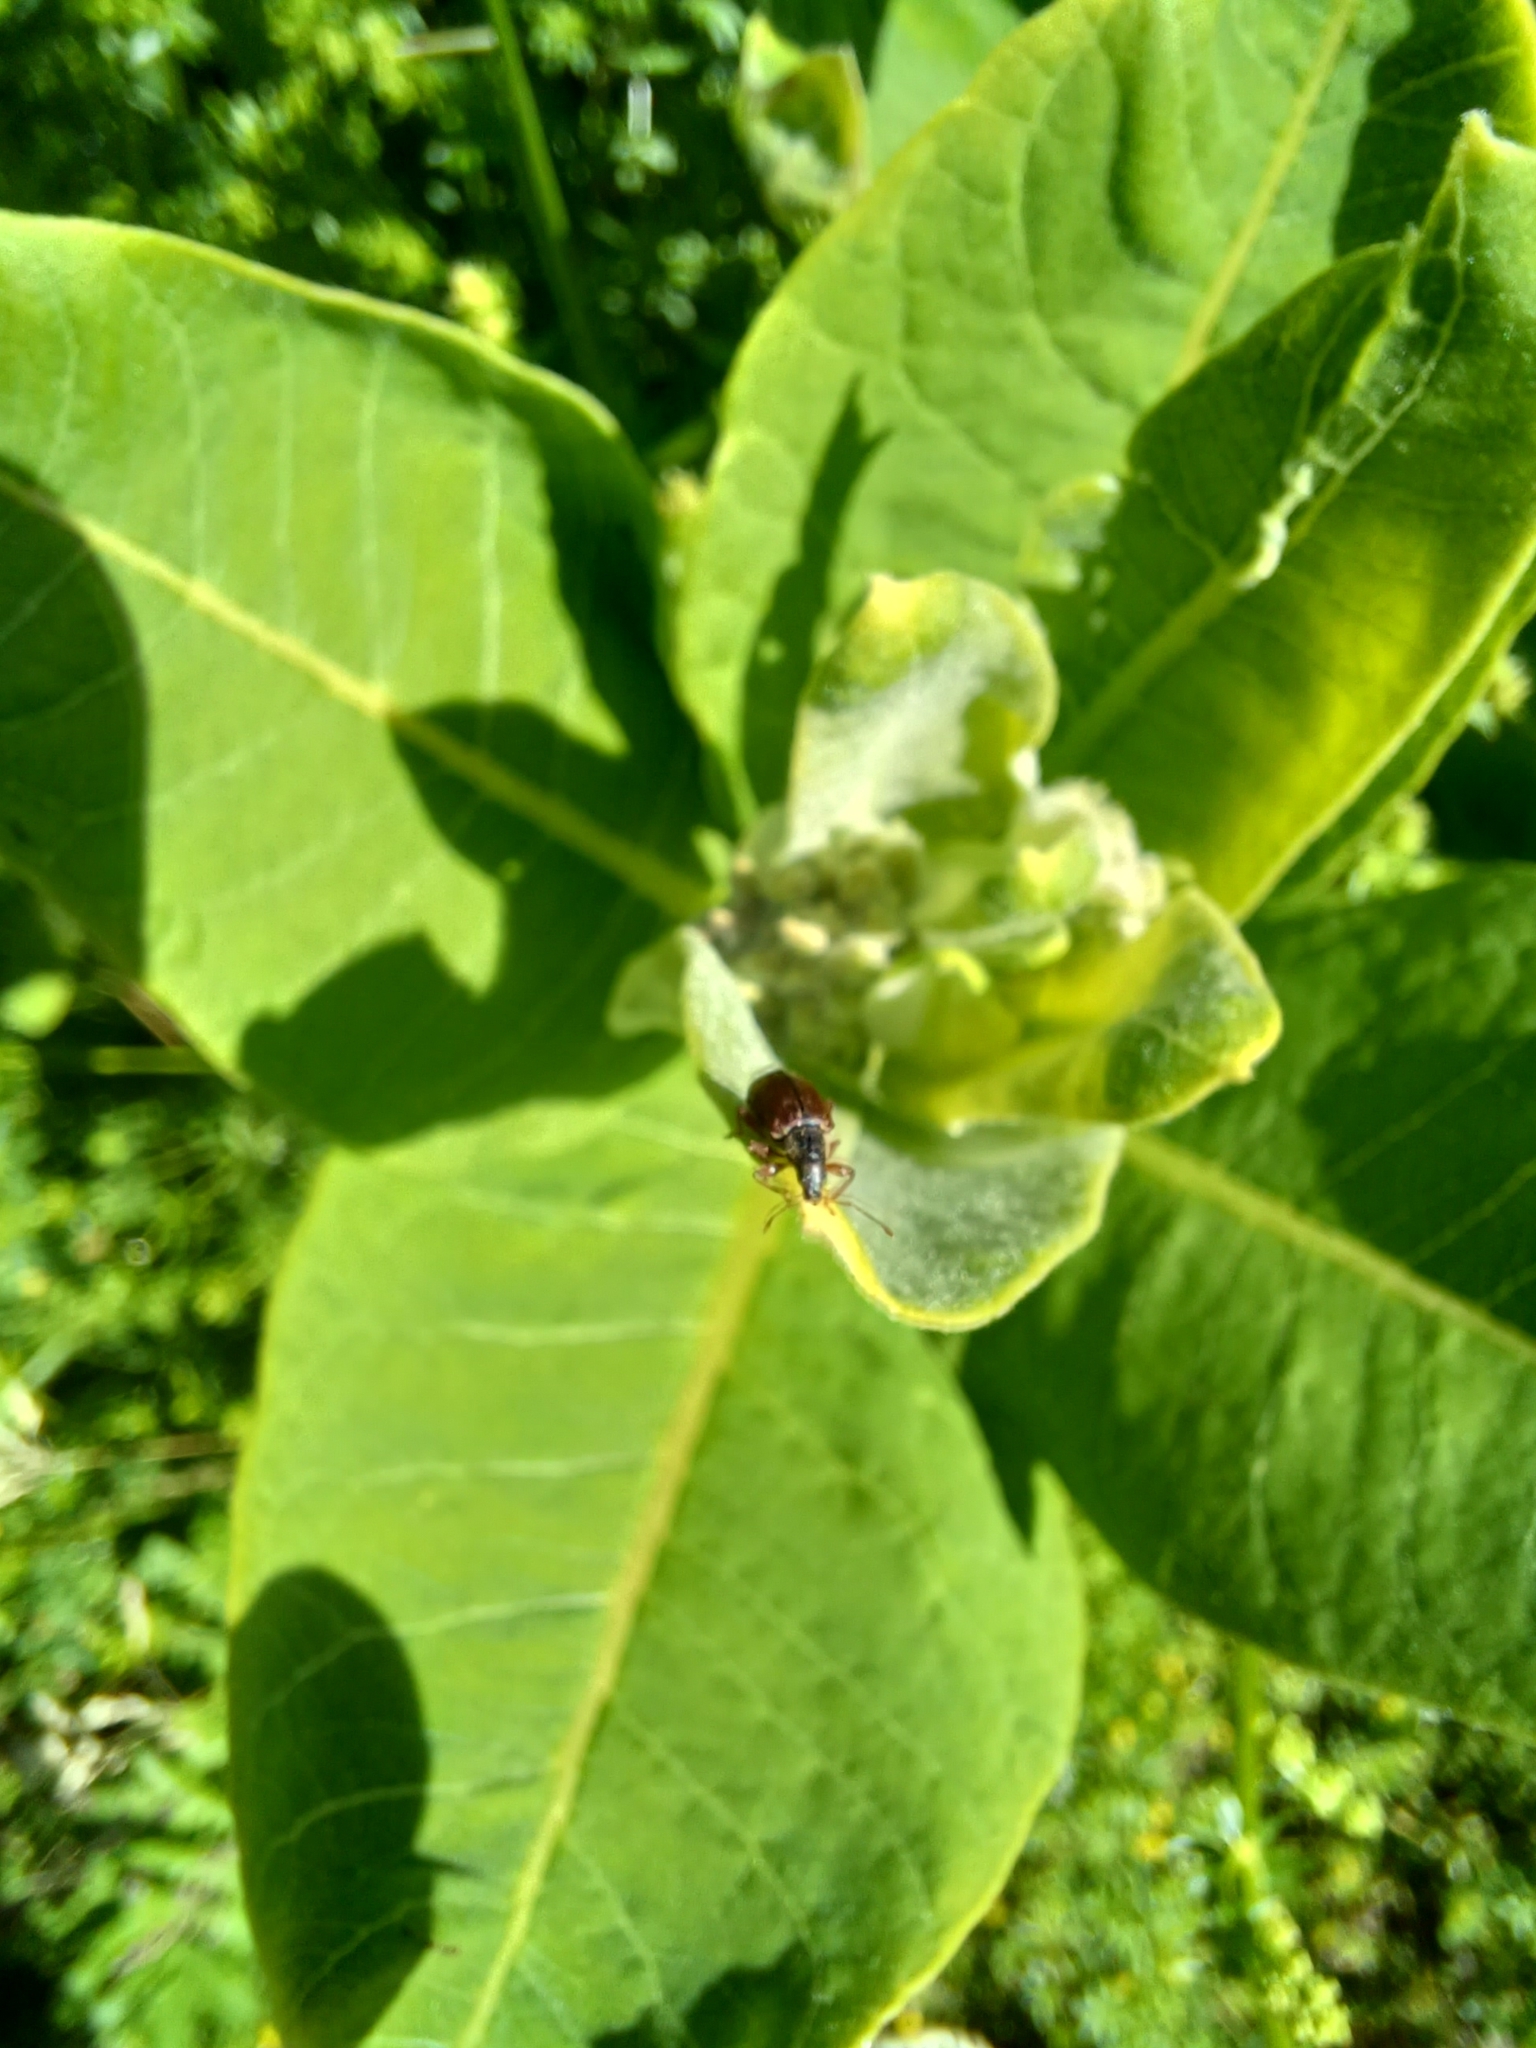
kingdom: Animalia
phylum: Arthropoda
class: Insecta
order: Coleoptera
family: Curculionidae
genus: Phyllobius
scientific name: Phyllobius oblongus
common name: Brown leaf weevil
